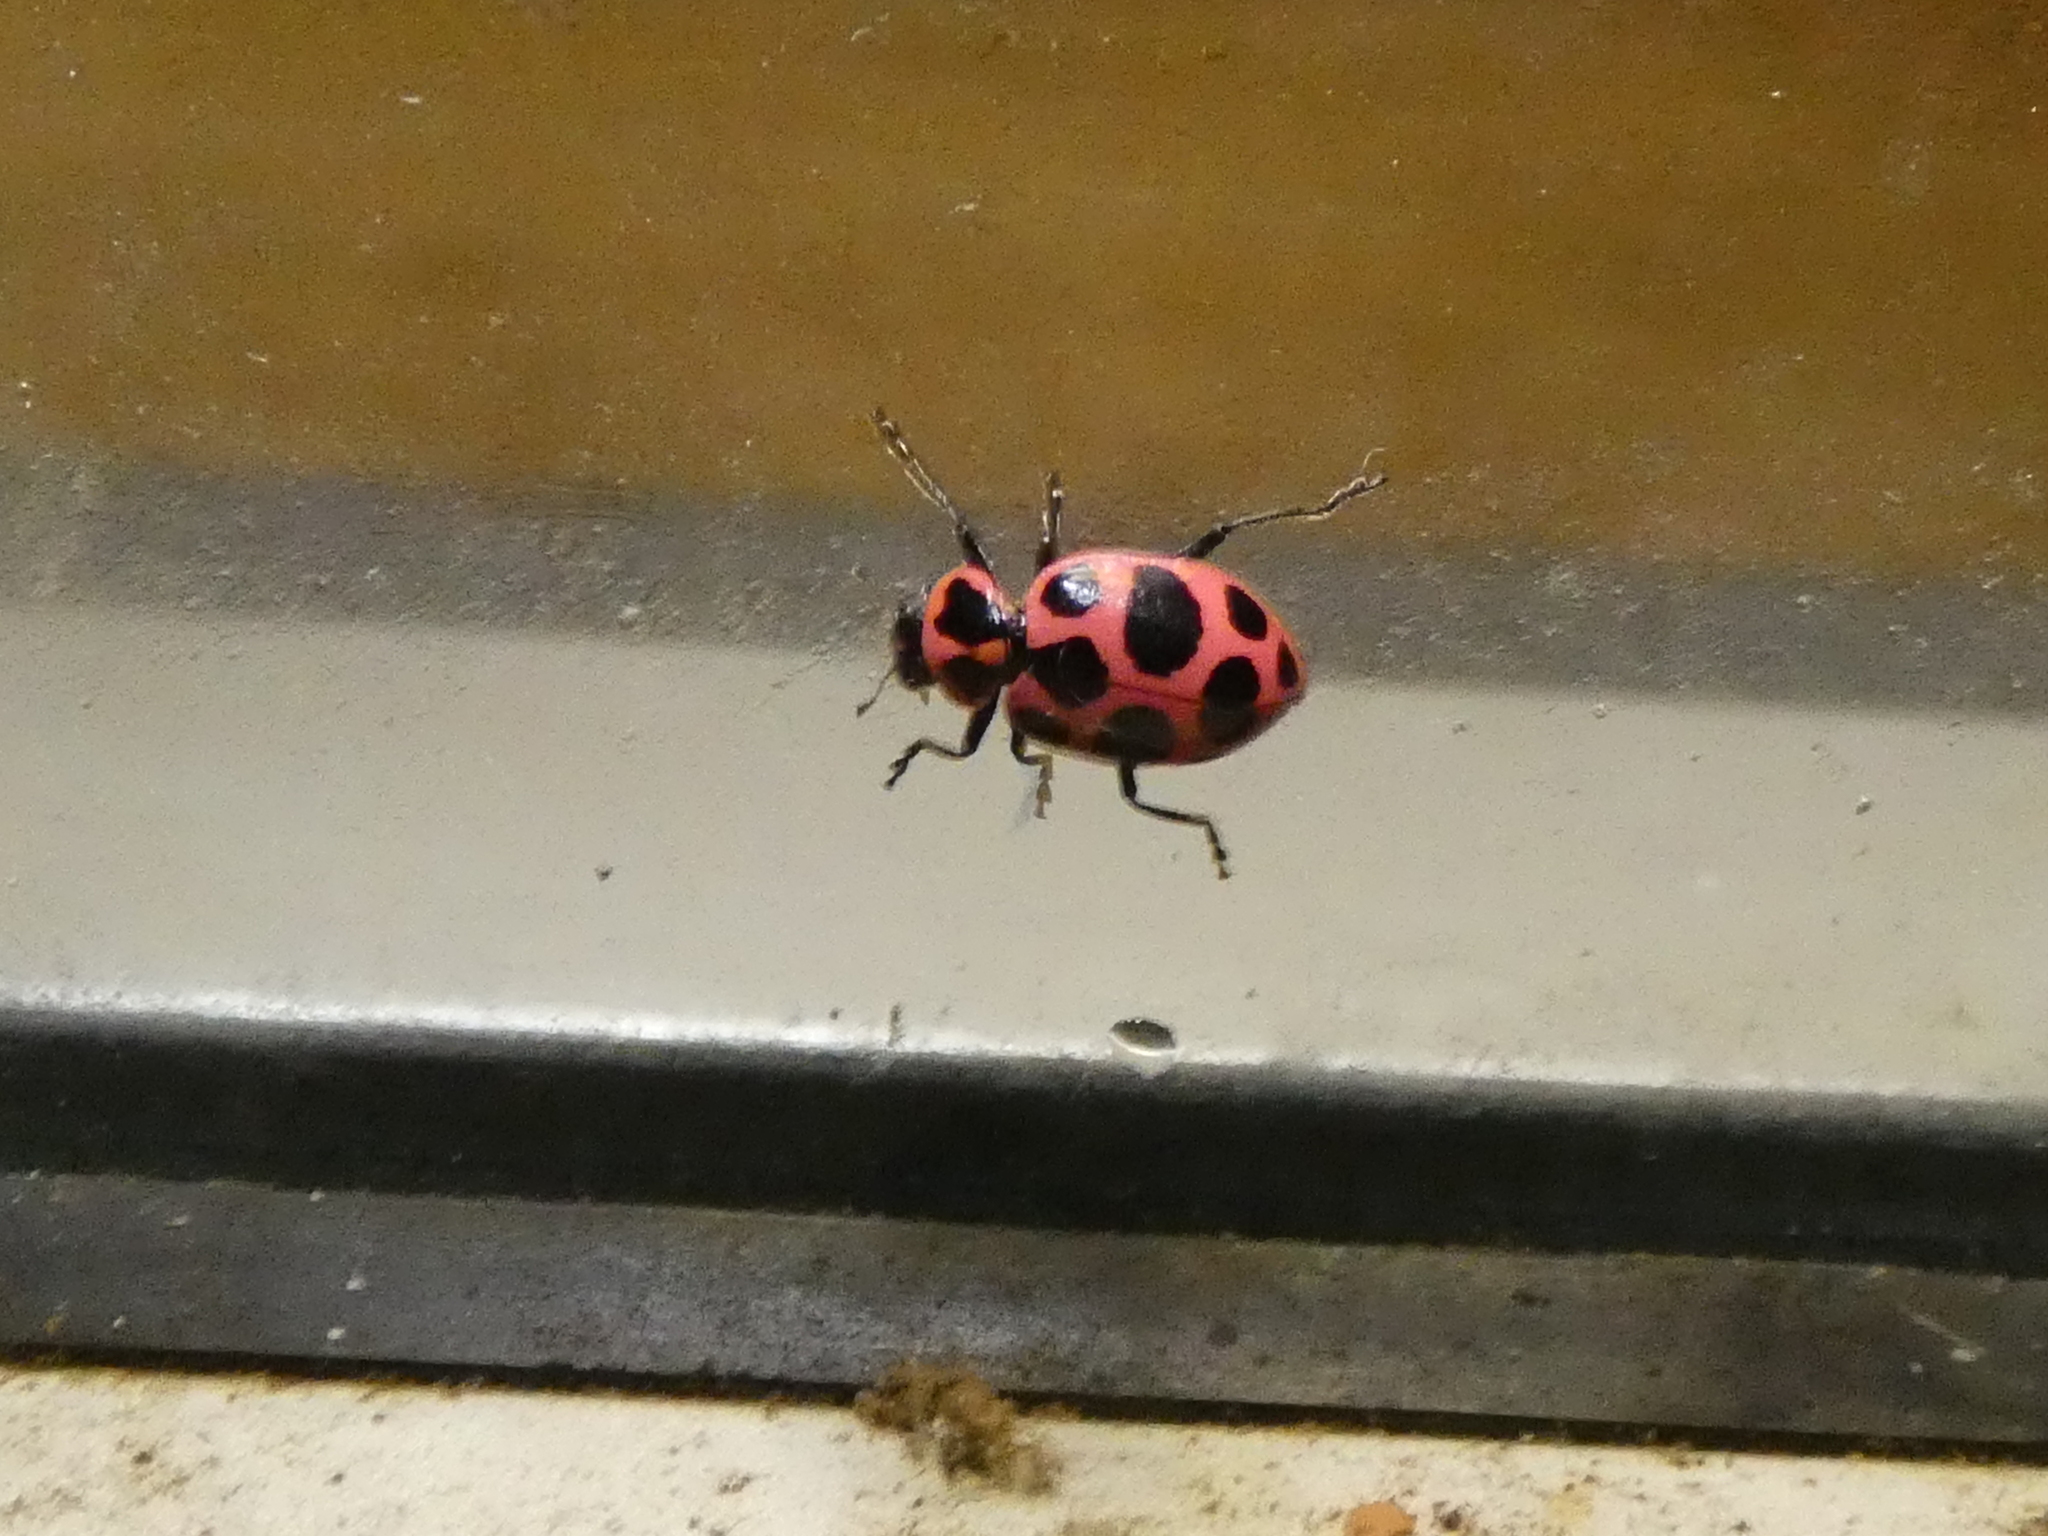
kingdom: Animalia
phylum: Arthropoda
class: Insecta
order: Coleoptera
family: Coccinellidae
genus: Coleomegilla
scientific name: Coleomegilla maculata
